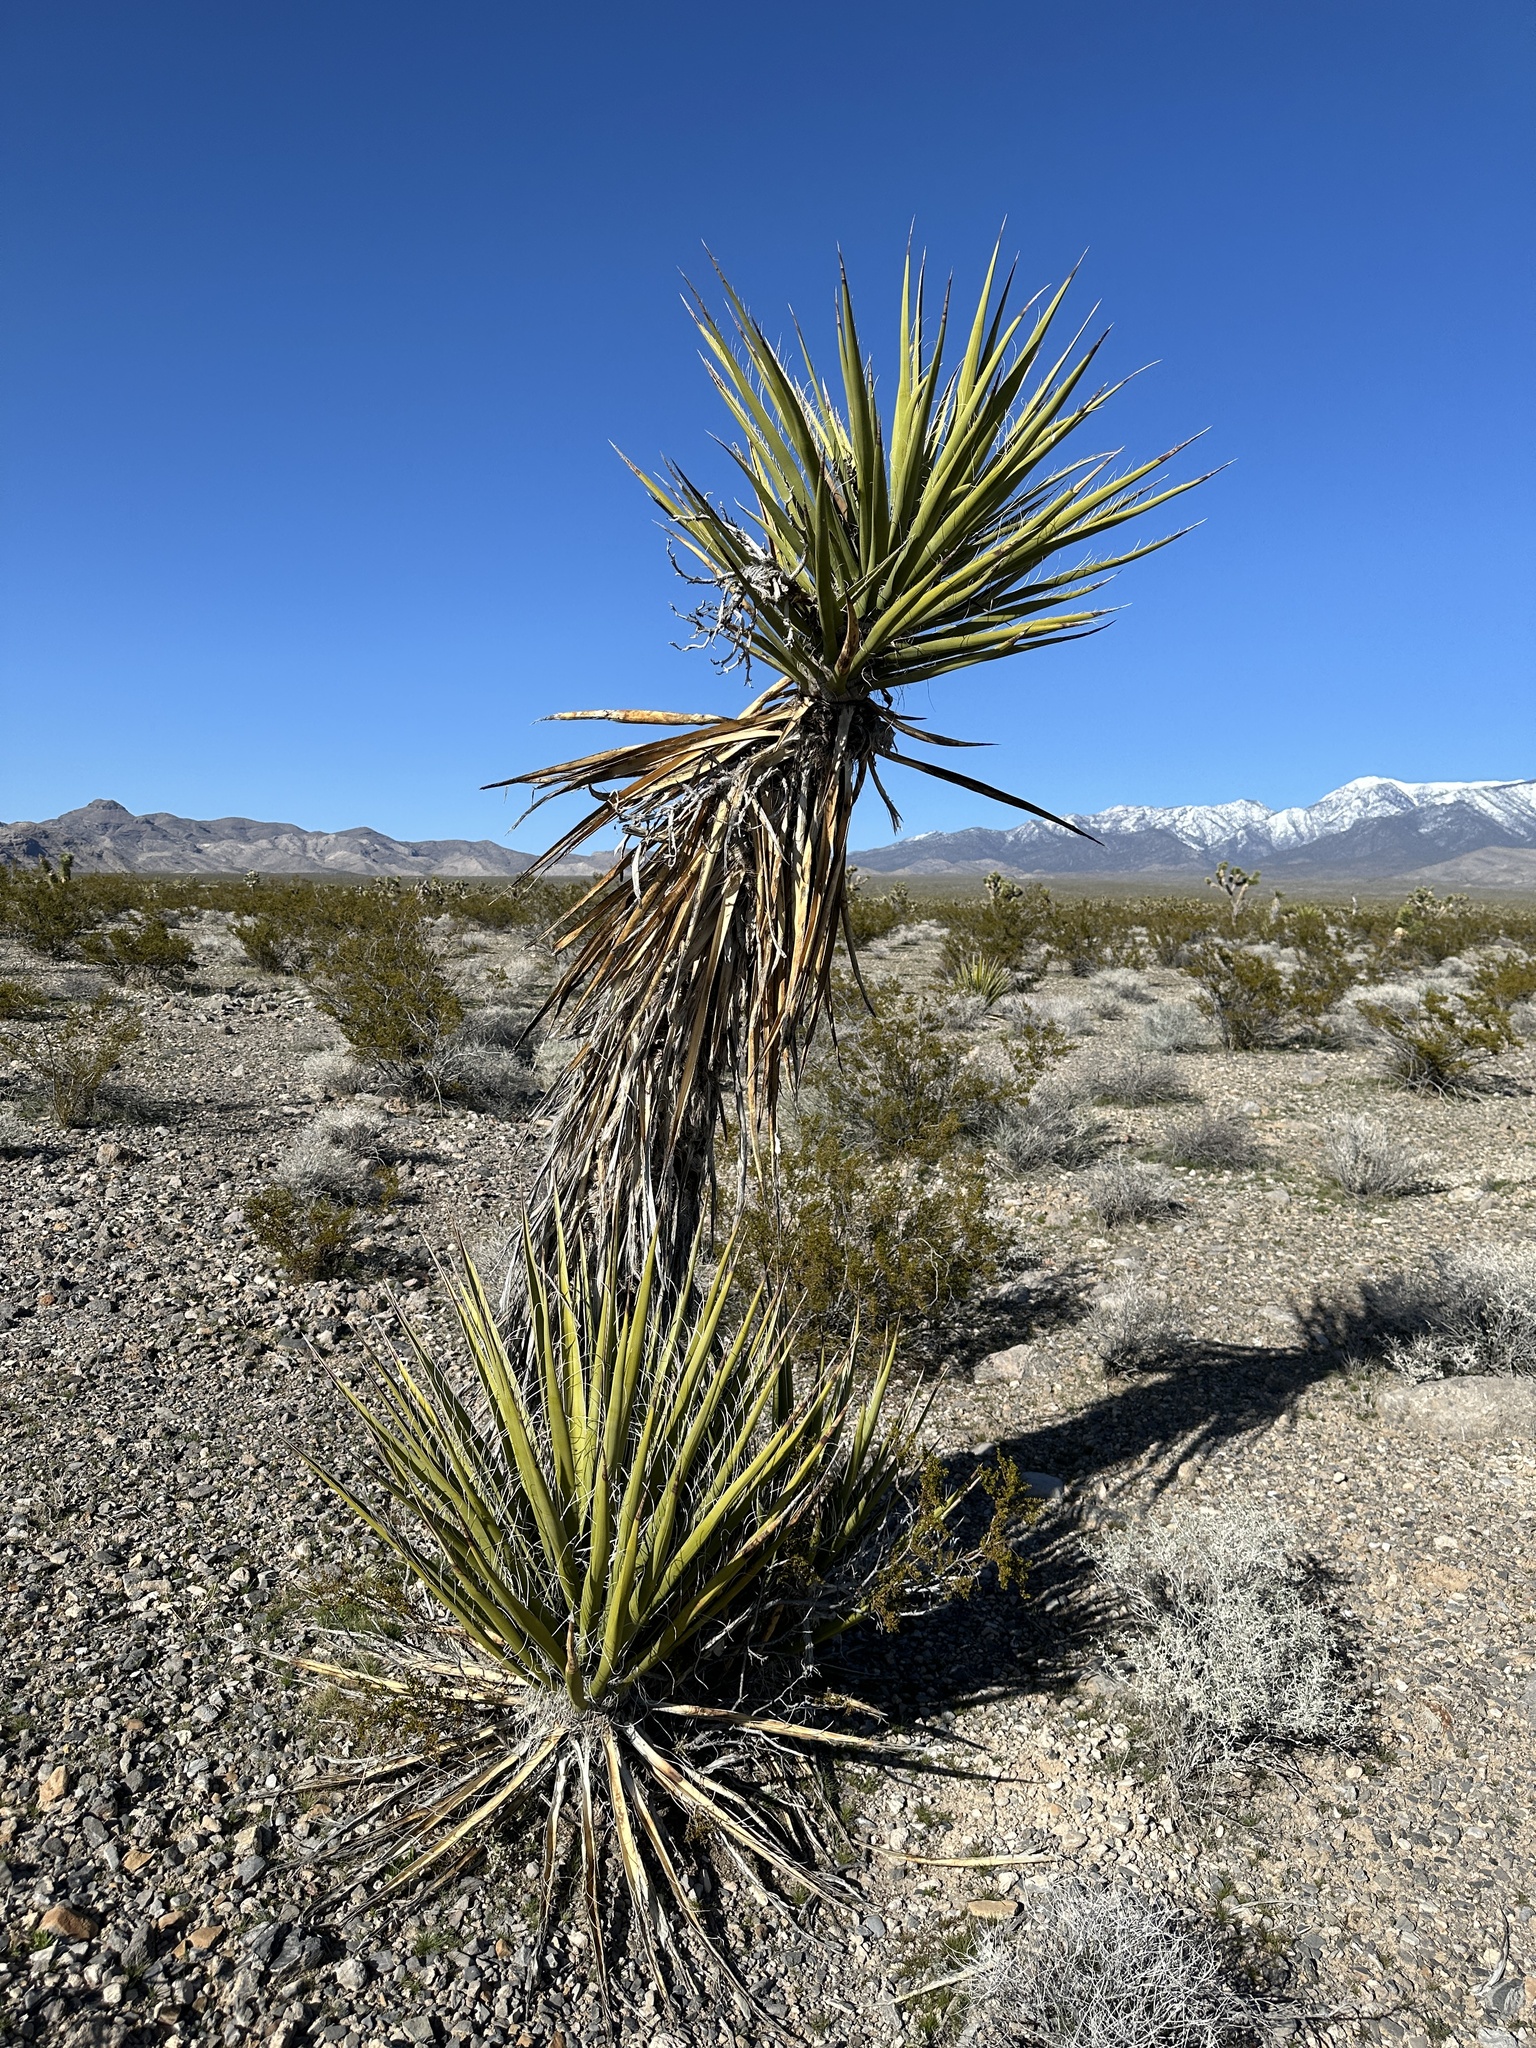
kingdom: Plantae
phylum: Tracheophyta
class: Liliopsida
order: Asparagales
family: Asparagaceae
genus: Yucca
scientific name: Yucca schidigera
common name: Mojave yucca
